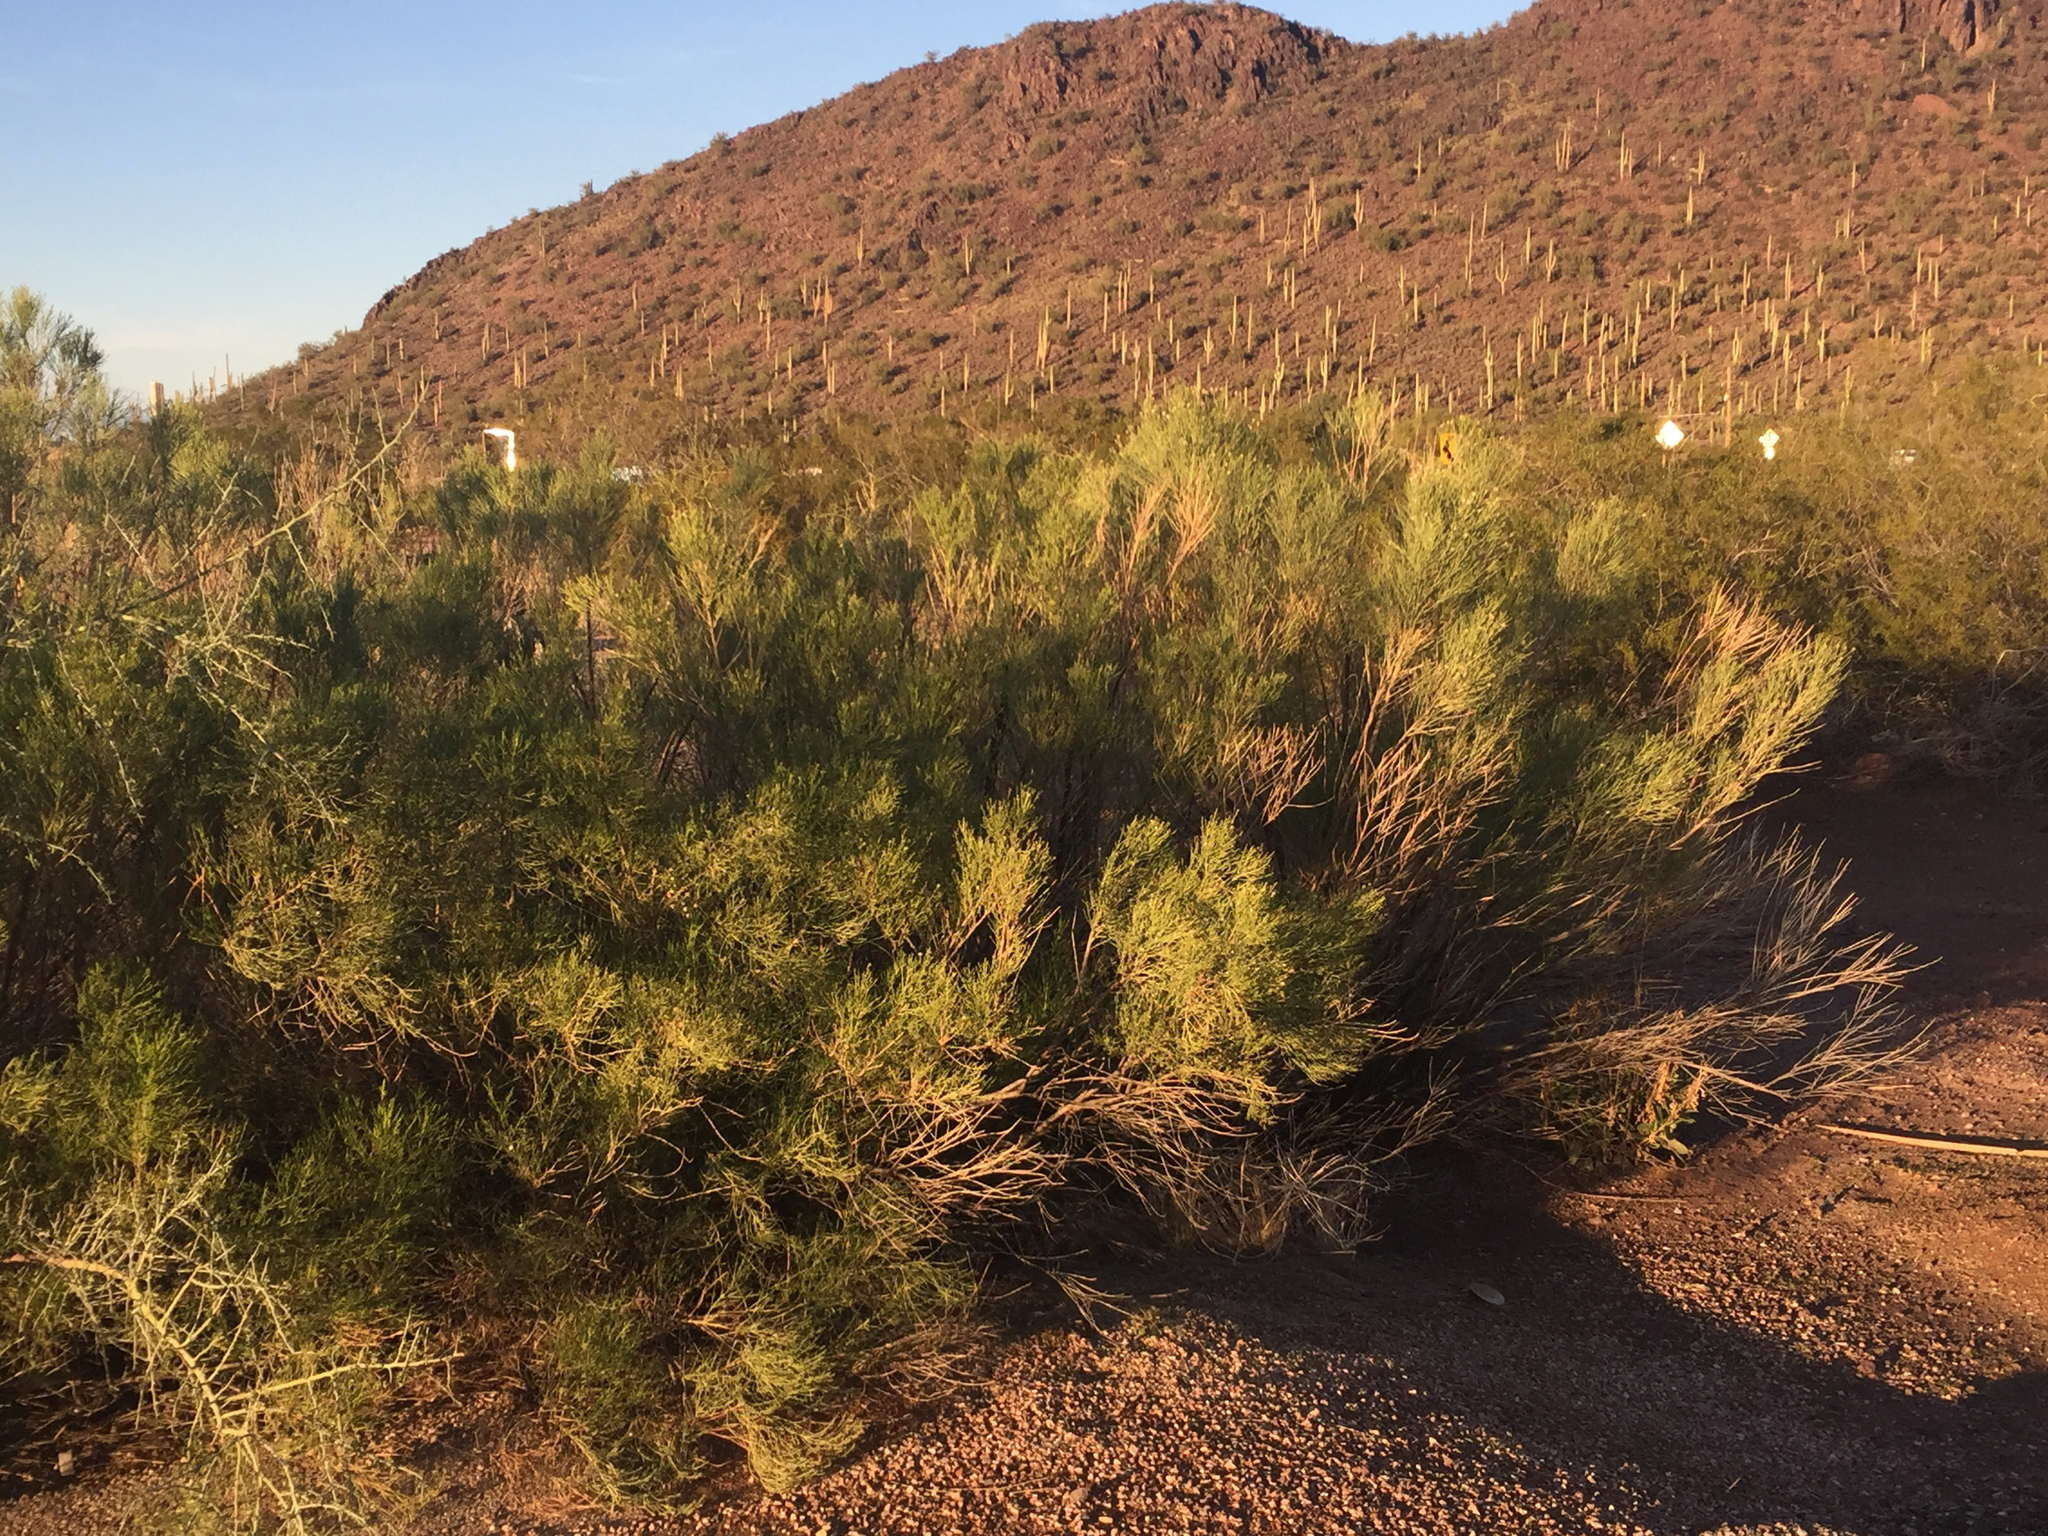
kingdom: Plantae
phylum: Tracheophyta
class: Magnoliopsida
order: Asterales
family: Asteraceae
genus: Baccharis
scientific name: Baccharis sarothroides
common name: Desert-broom
